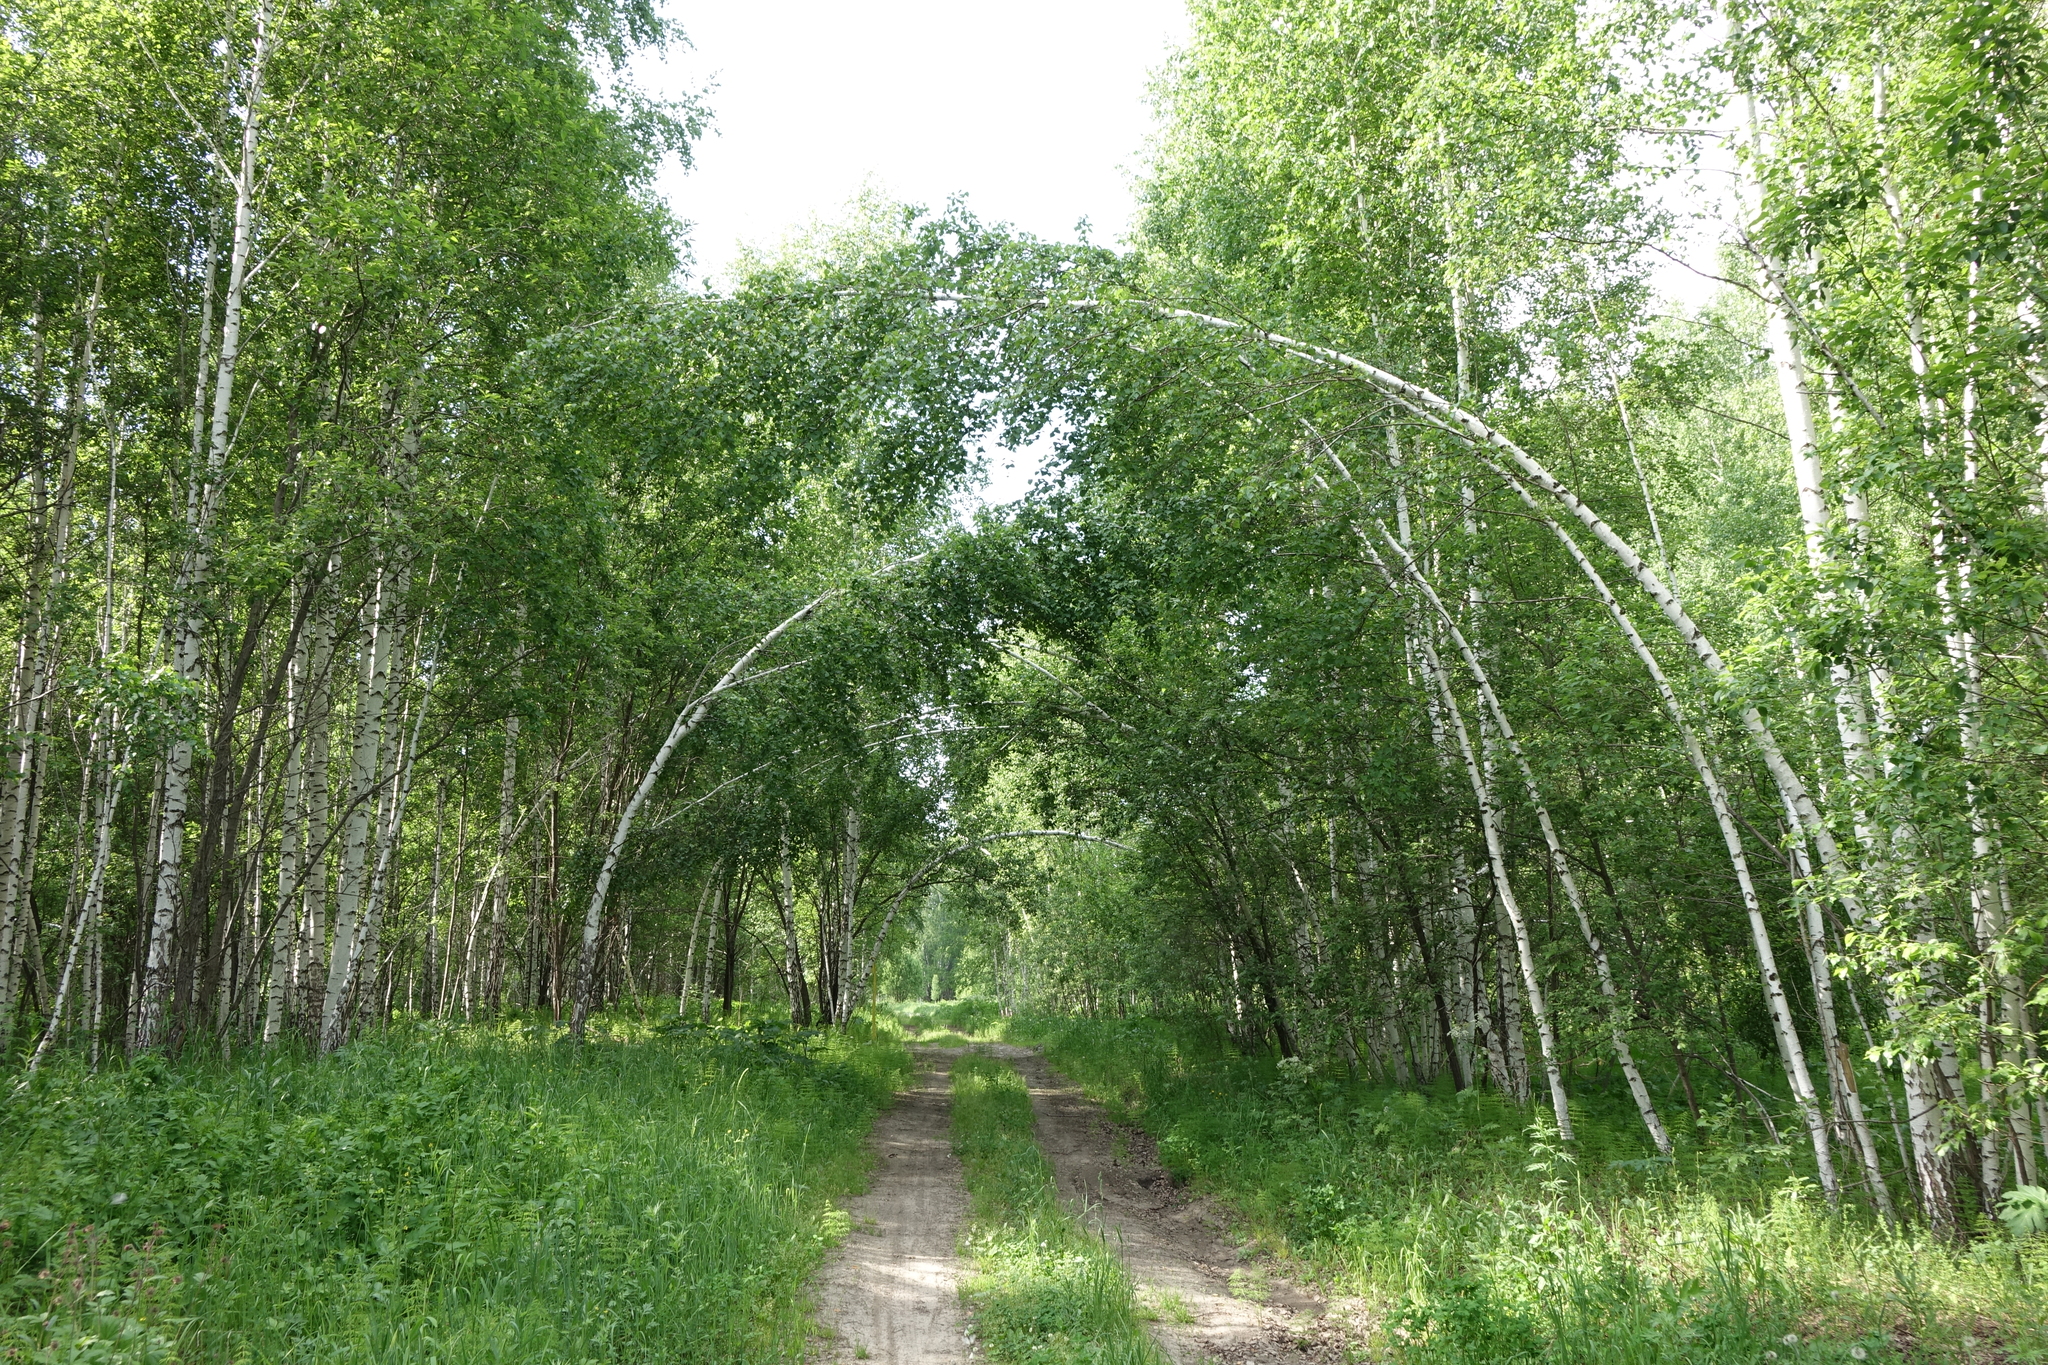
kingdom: Plantae
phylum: Tracheophyta
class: Magnoliopsida
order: Fagales
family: Betulaceae
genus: Betula
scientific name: Betula pendula
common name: Silver birch
